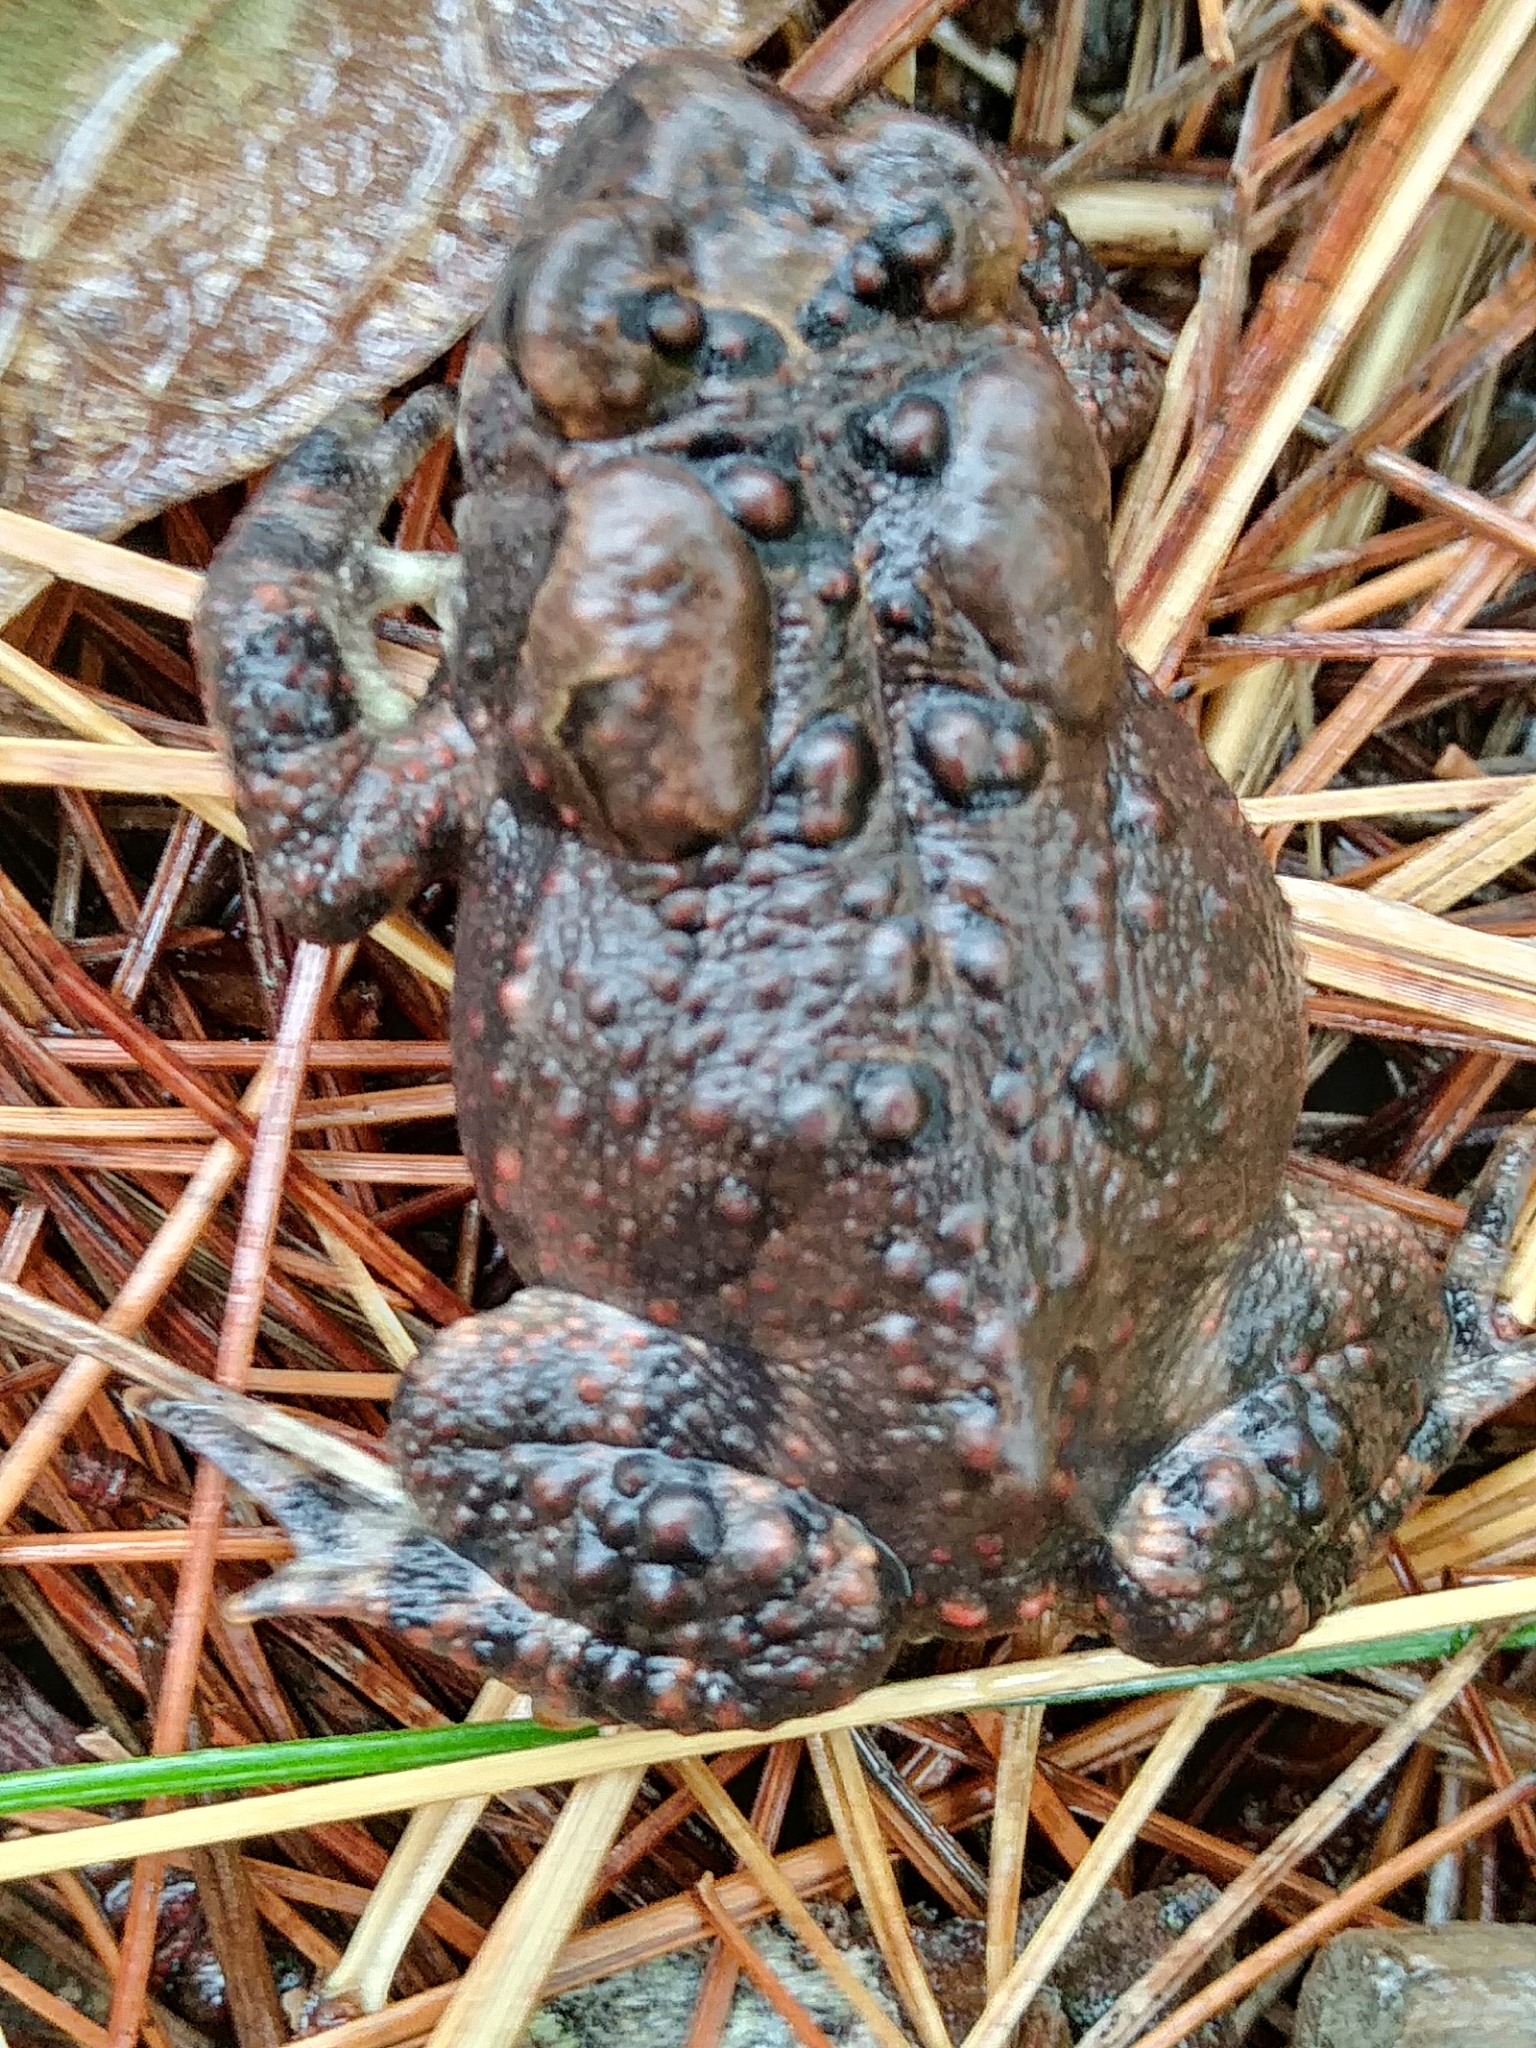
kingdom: Animalia
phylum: Chordata
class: Amphibia
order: Anura
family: Bufonidae
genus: Anaxyrus
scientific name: Anaxyrus americanus
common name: American toad
